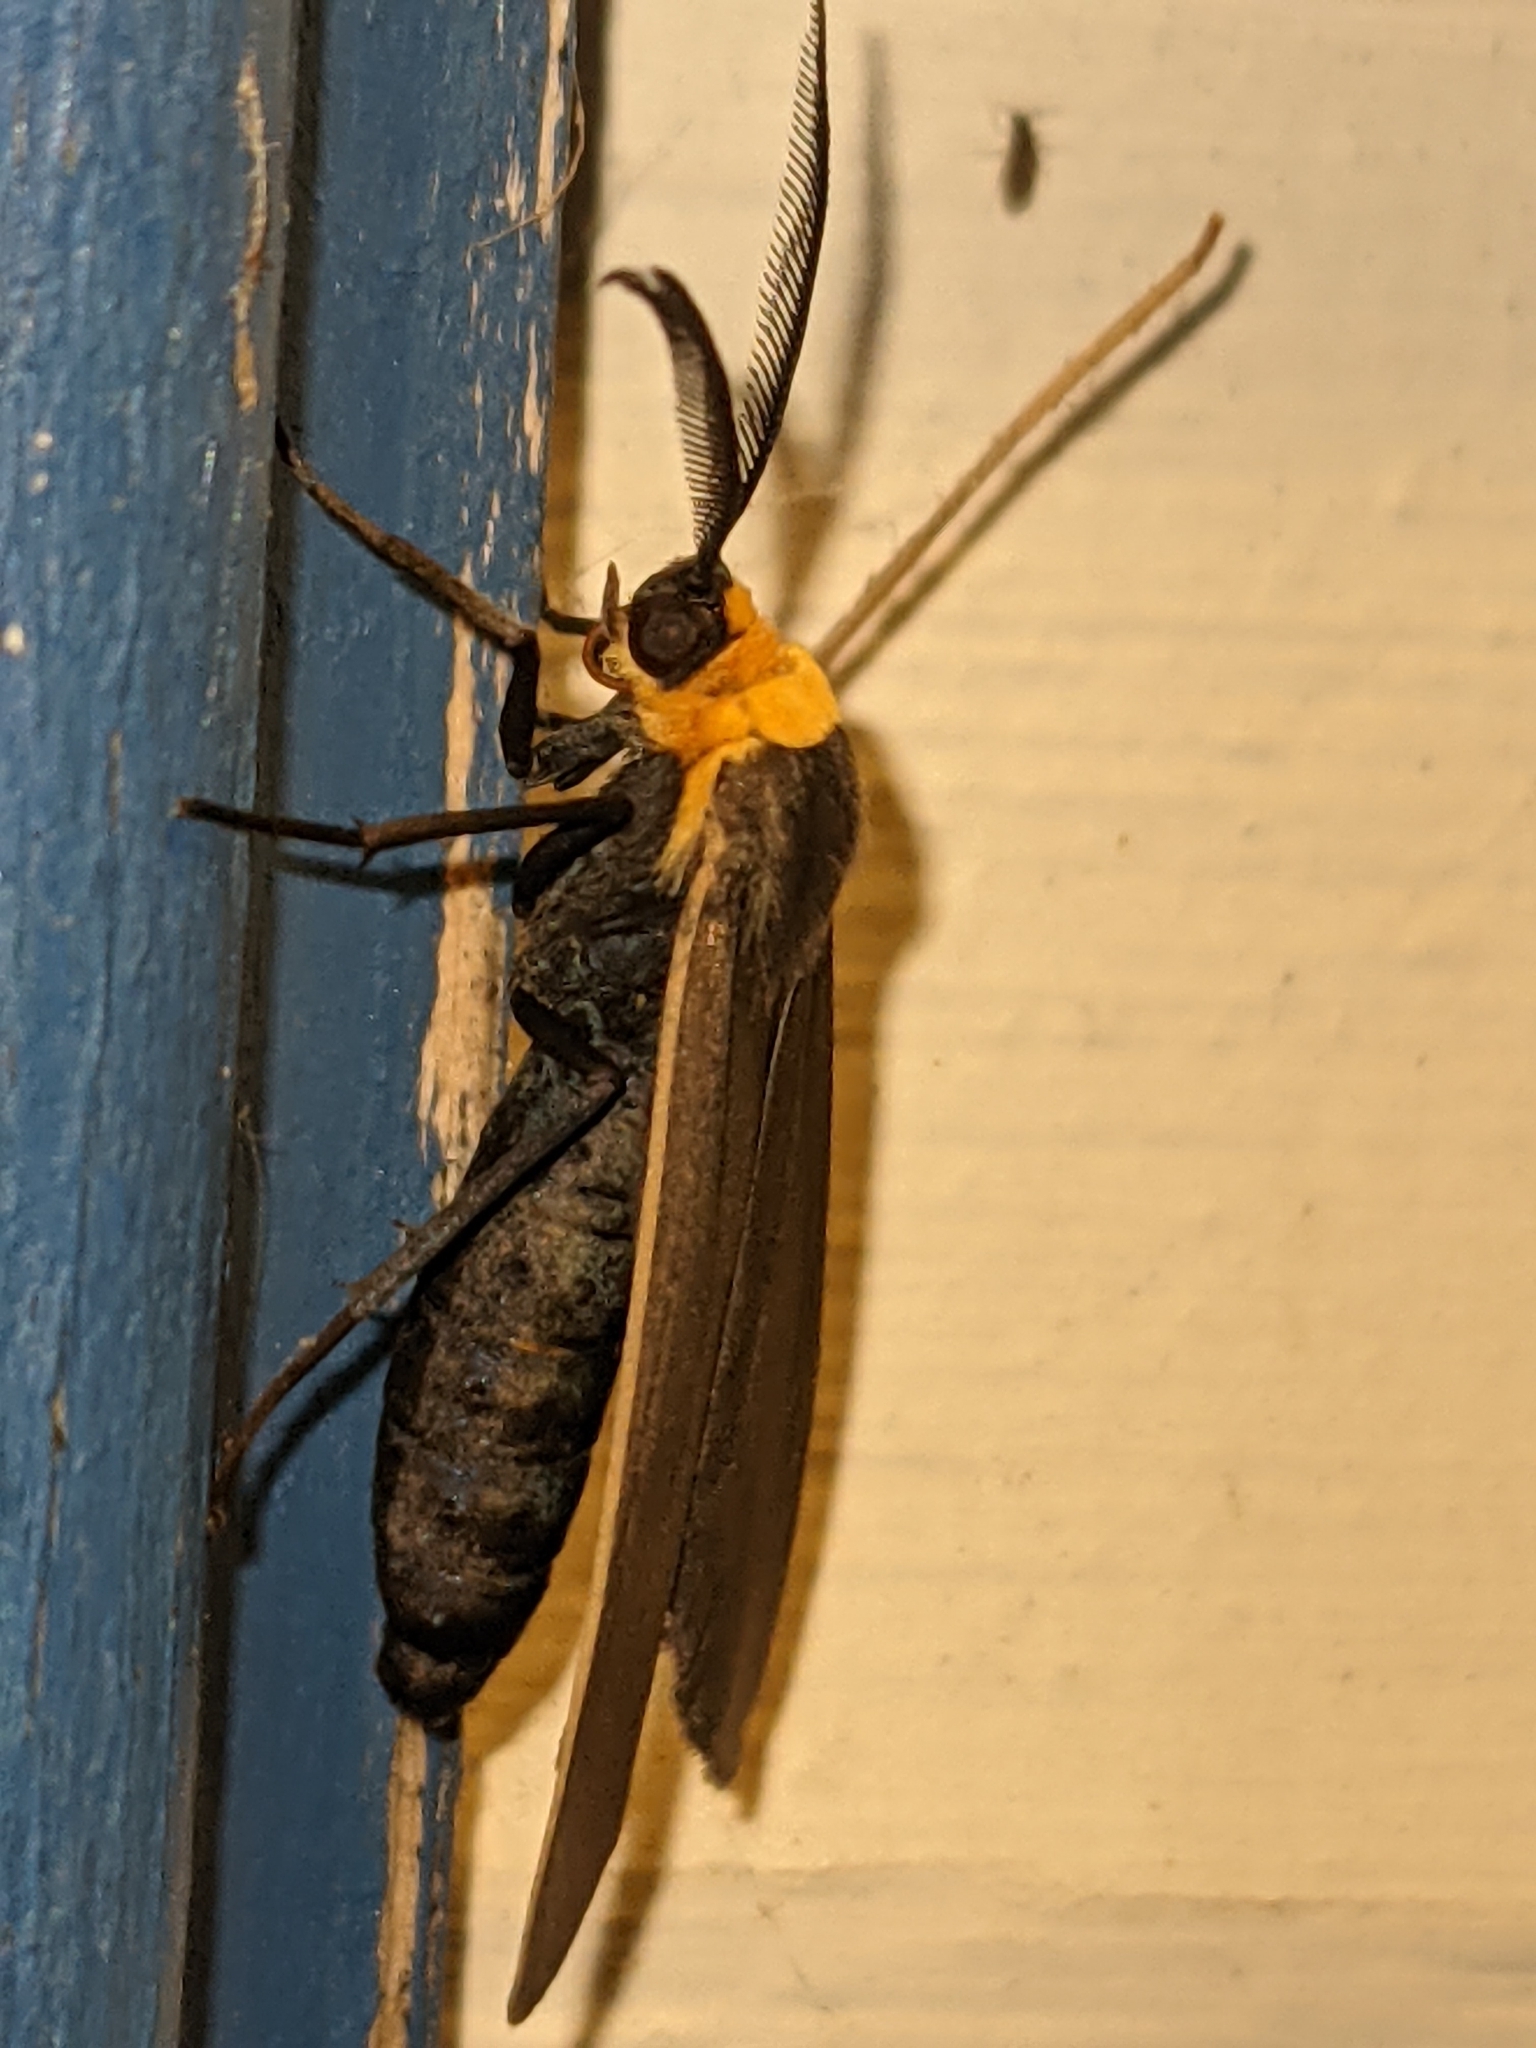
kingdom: Animalia
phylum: Arthropoda
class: Insecta
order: Lepidoptera
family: Erebidae
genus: Cisseps
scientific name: Cisseps fulvicollis
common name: Yellow-collared scape moth
